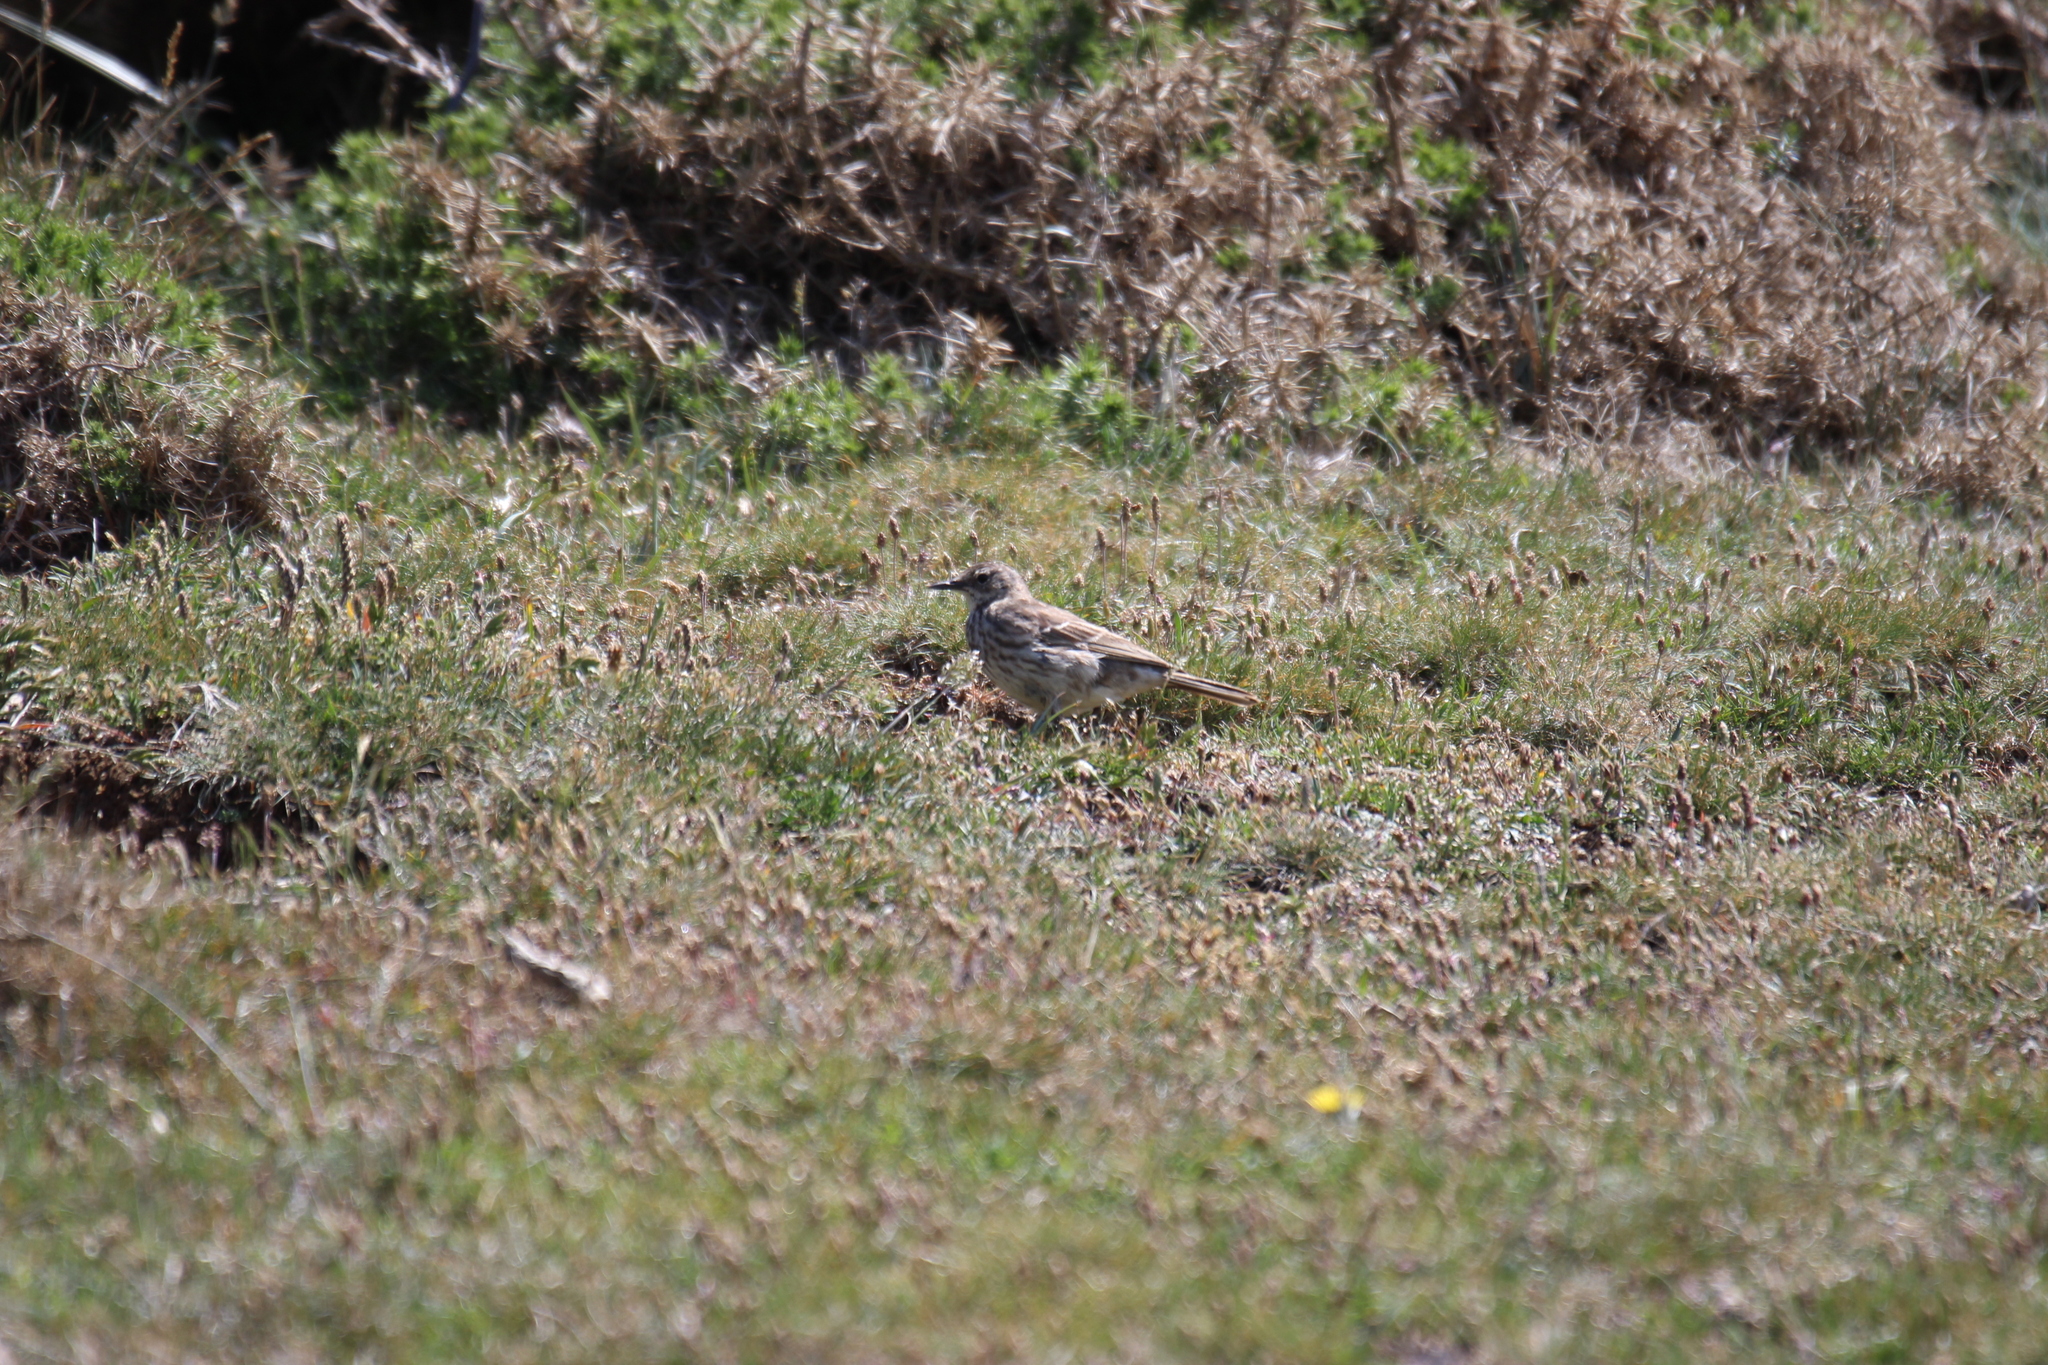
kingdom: Animalia
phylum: Chordata
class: Aves
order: Passeriformes
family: Motacillidae
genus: Anthus
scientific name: Anthus petrosus
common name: Eurasian rock pipit
